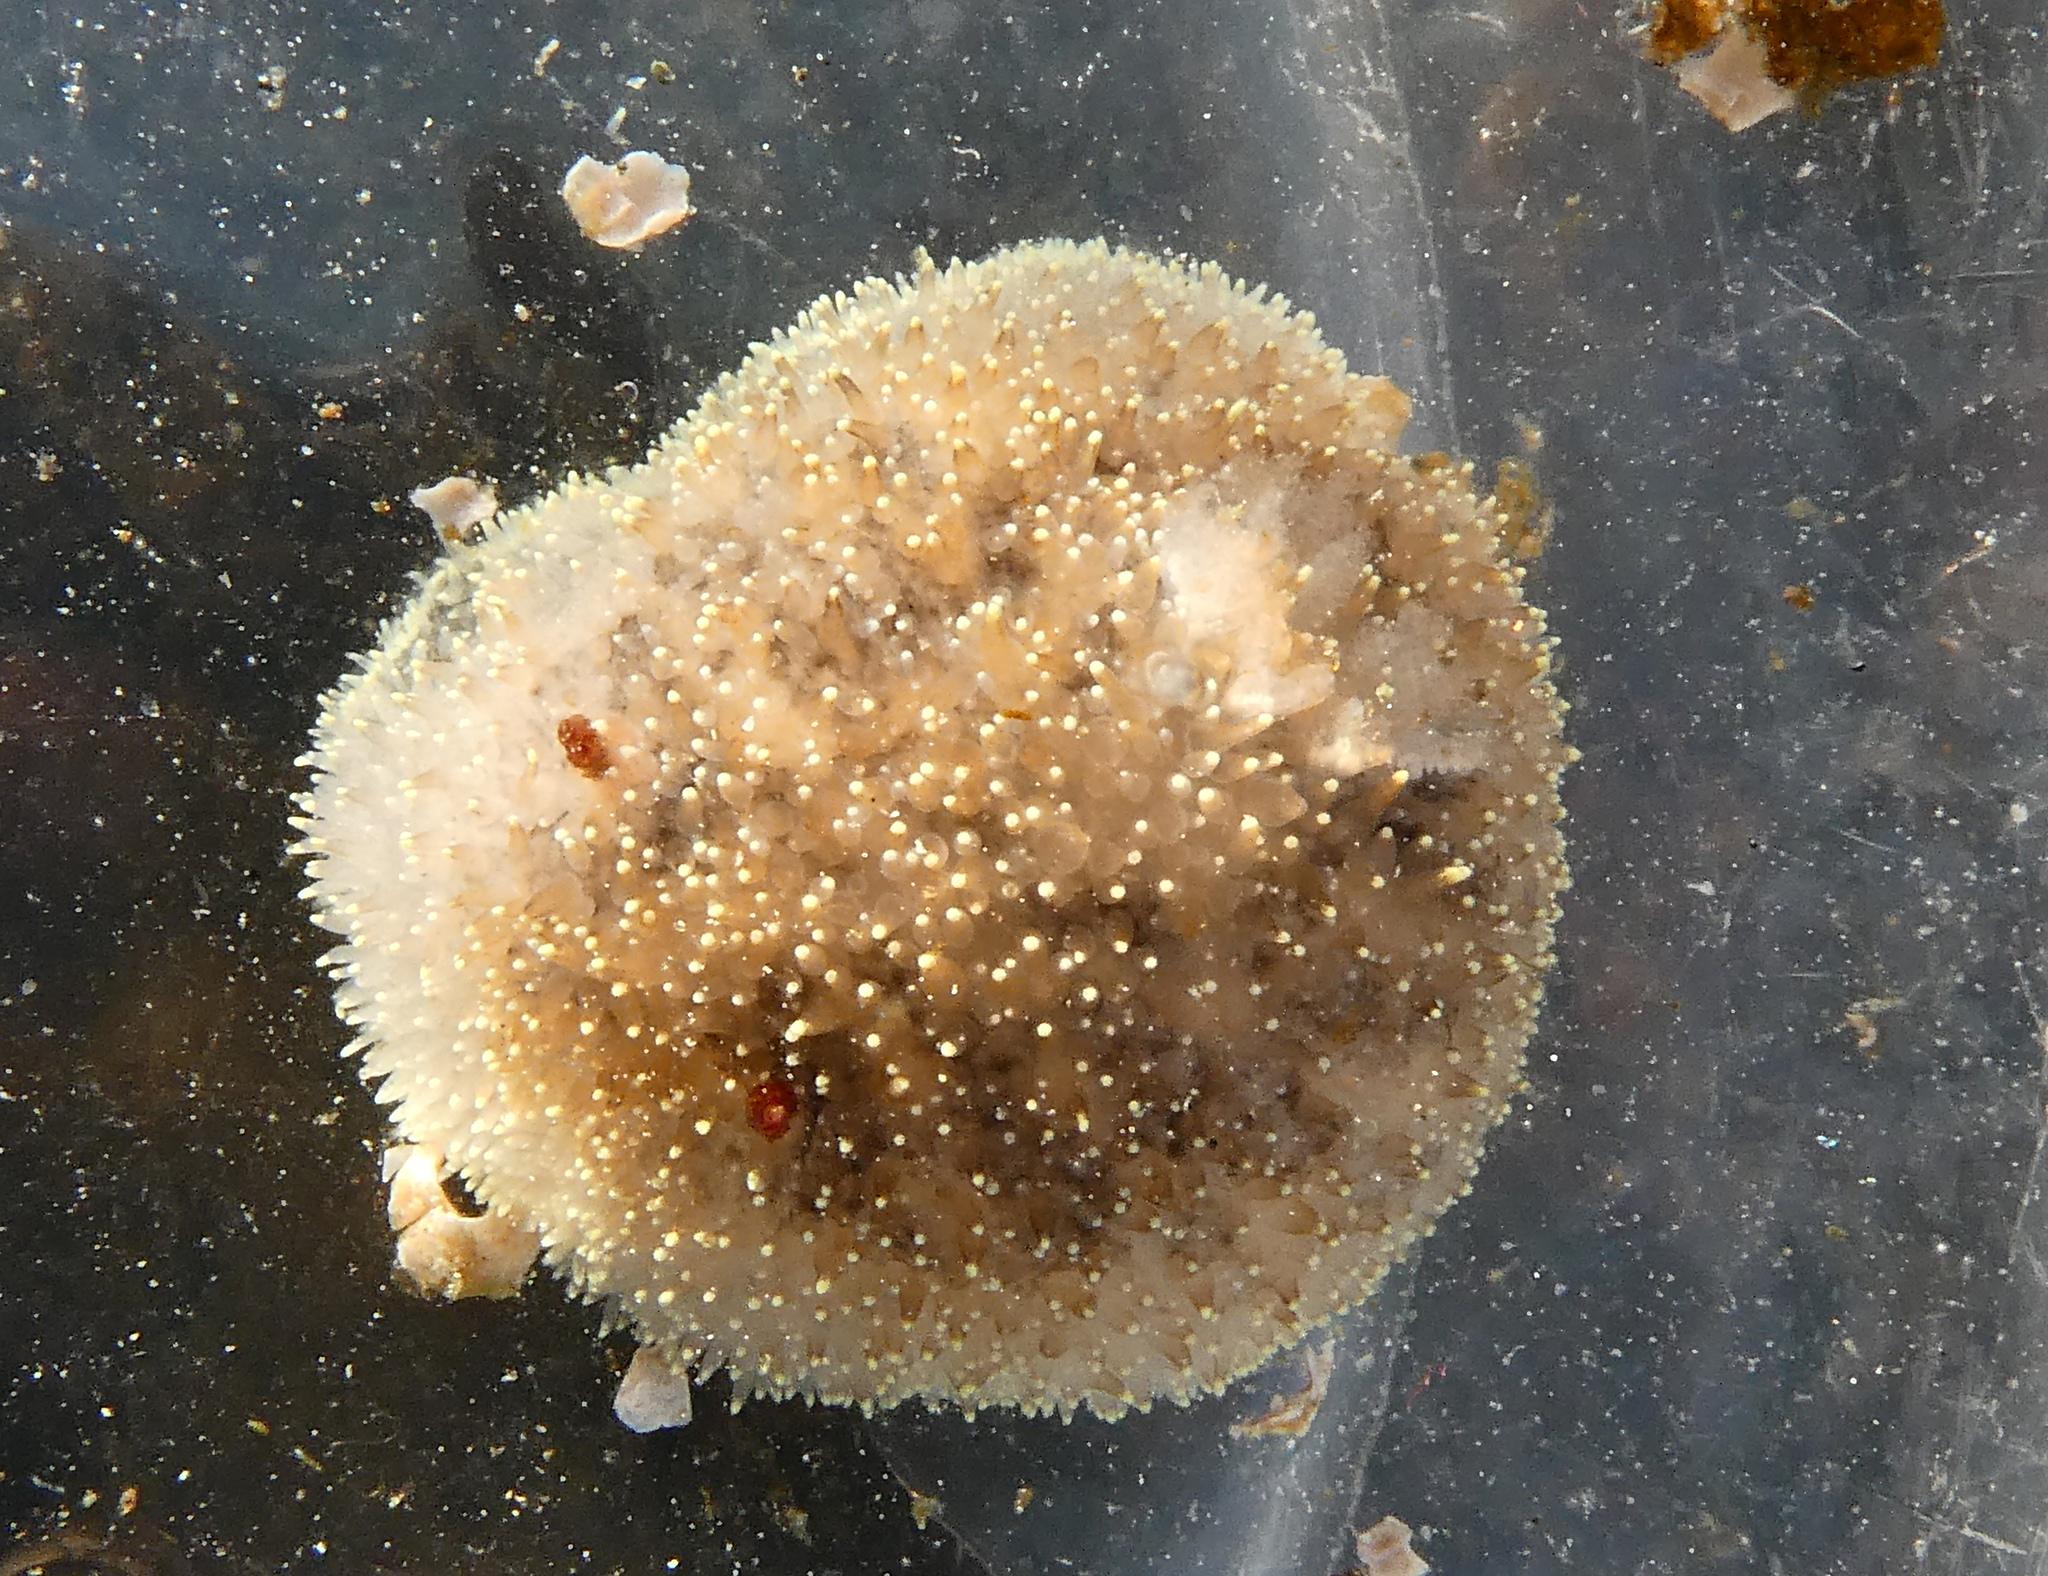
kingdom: Animalia
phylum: Mollusca
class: Gastropoda
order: Nudibranchia
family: Onchidorididae
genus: Acanthodoris
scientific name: Acanthodoris nanaimoensis
